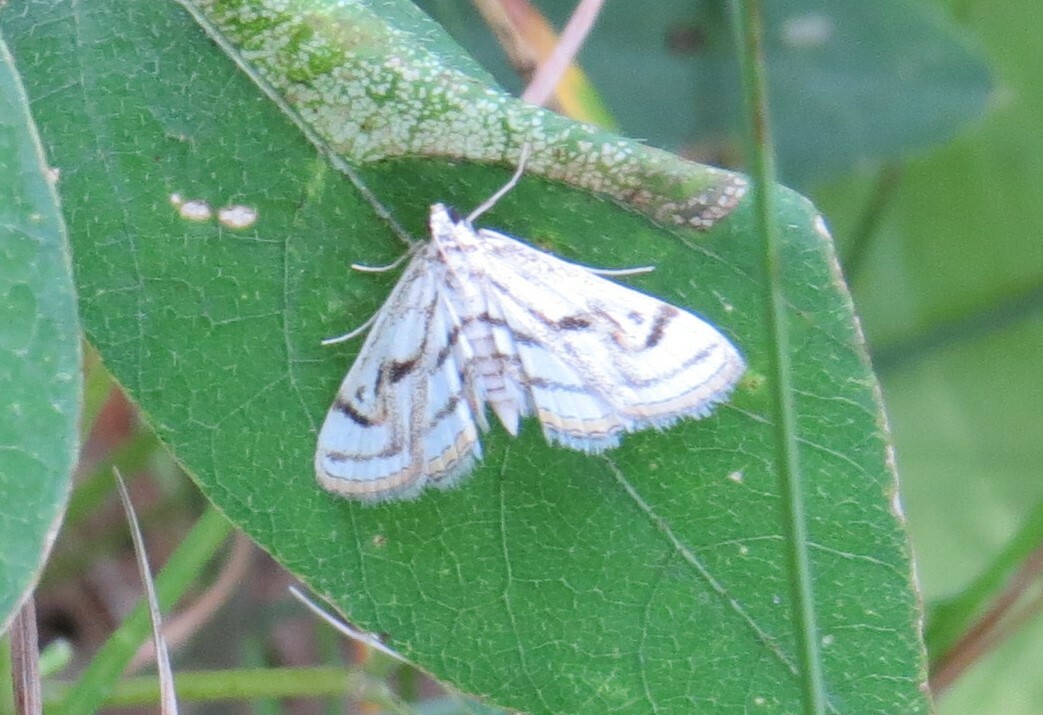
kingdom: Animalia
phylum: Arthropoda
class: Insecta
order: Lepidoptera
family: Crambidae
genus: Parapoynx
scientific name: Parapoynx badiusalis
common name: Chestnut-marked pondweed moth
